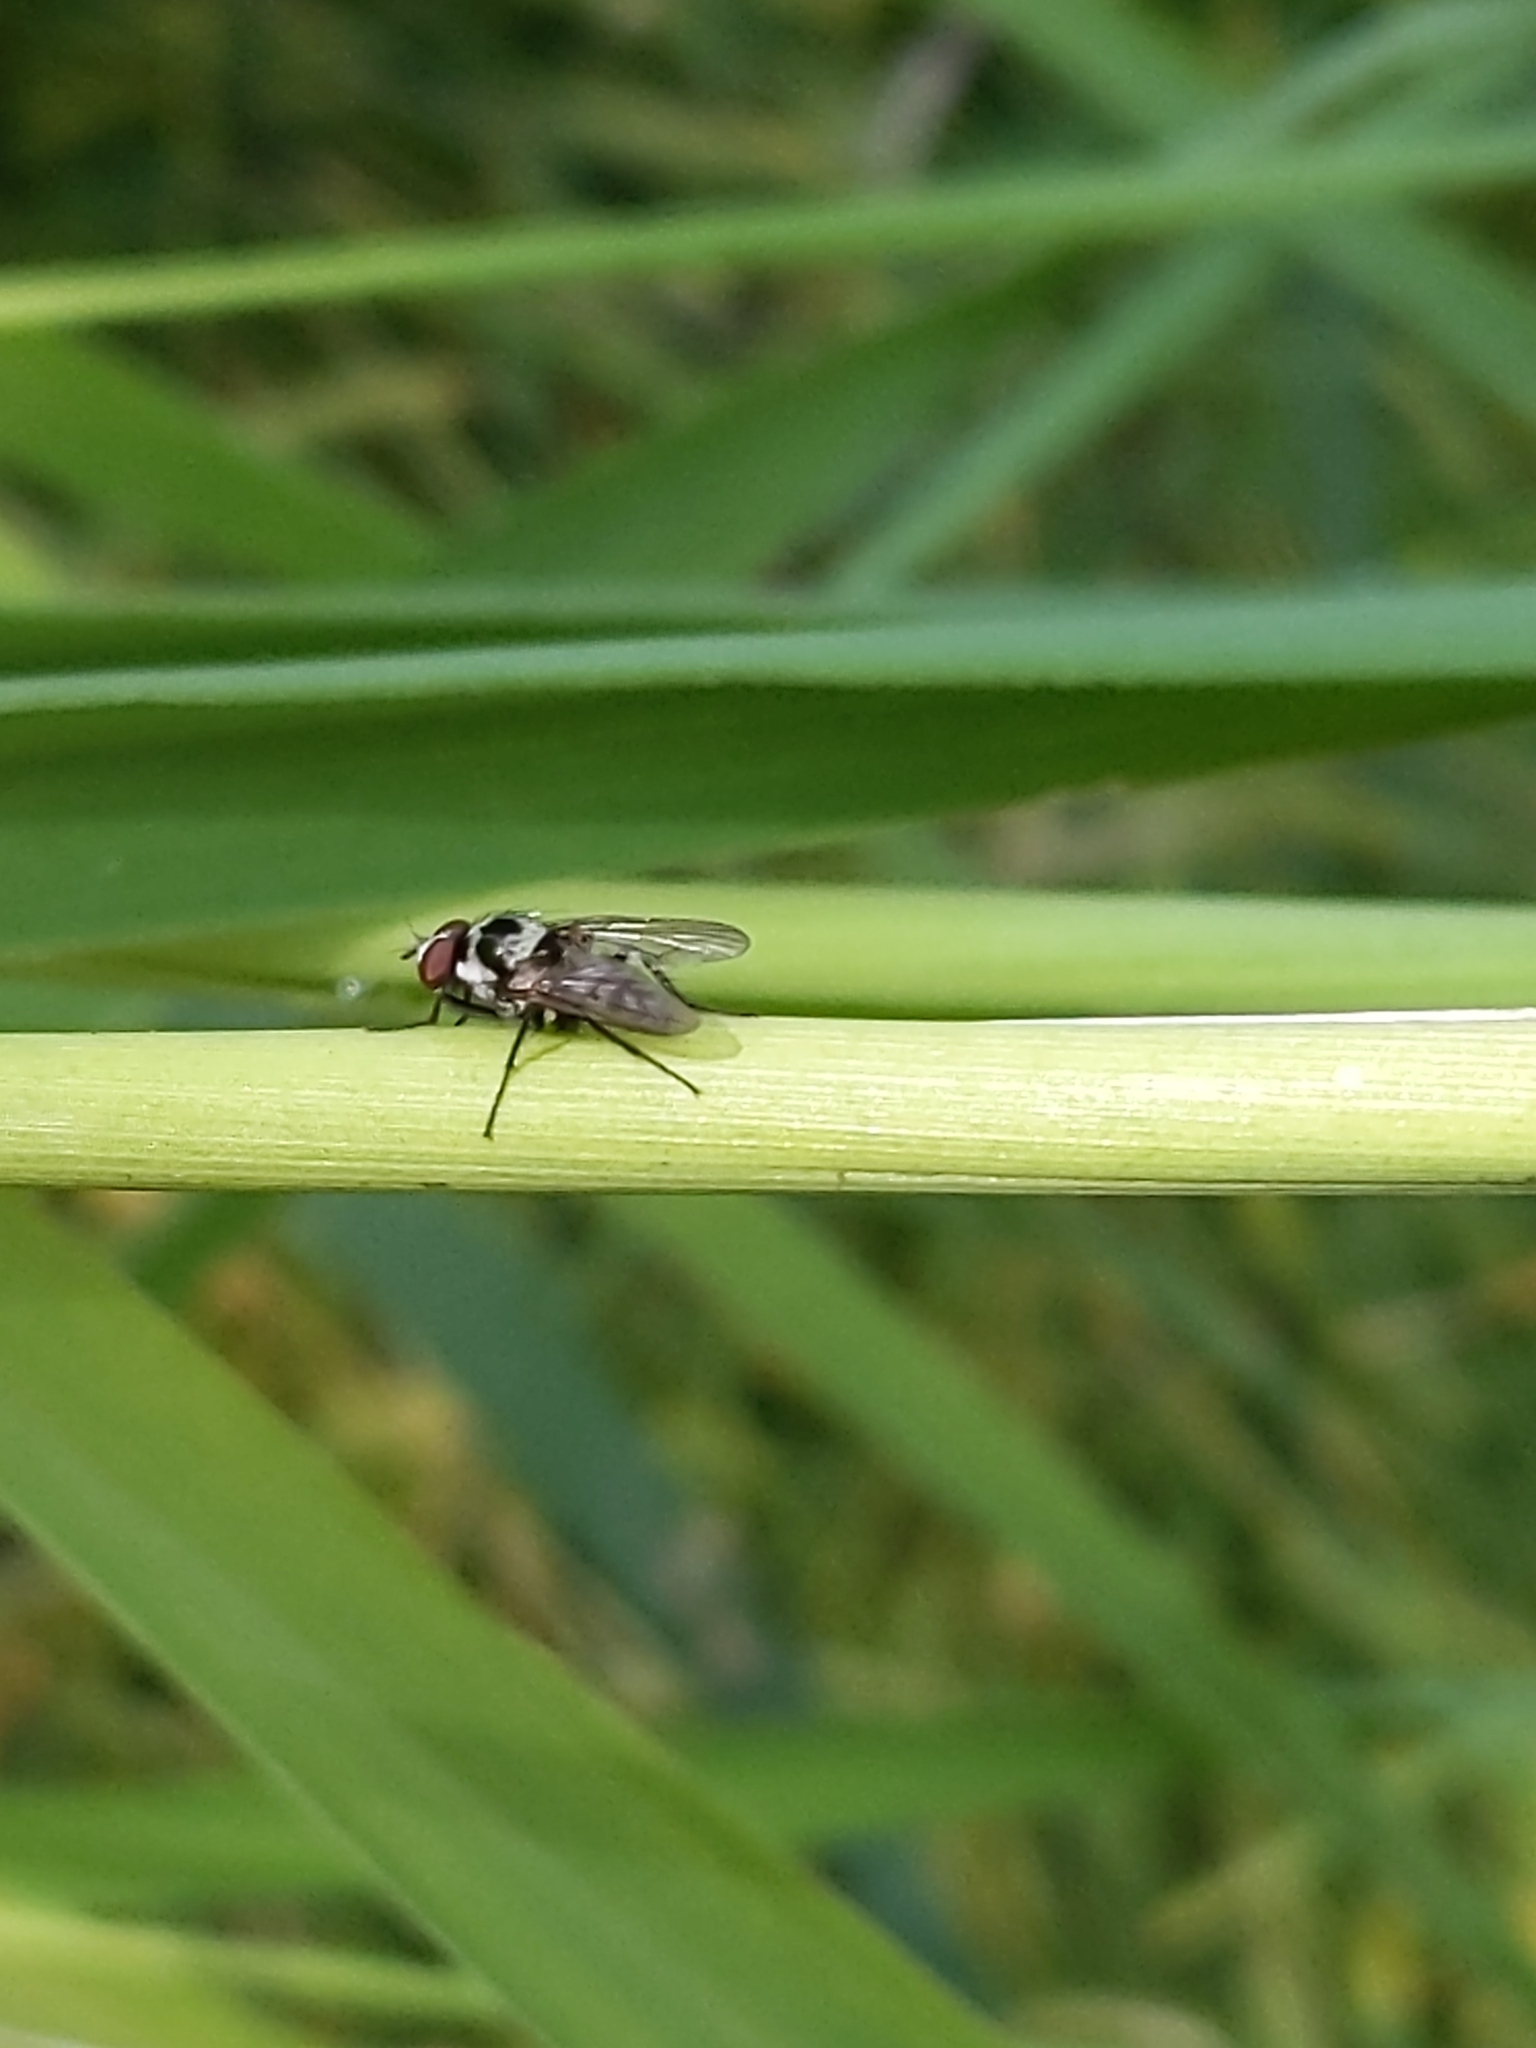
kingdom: Animalia
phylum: Arthropoda
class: Insecta
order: Diptera
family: Anthomyiidae
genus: Anthomyia
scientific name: Anthomyia procellaris
